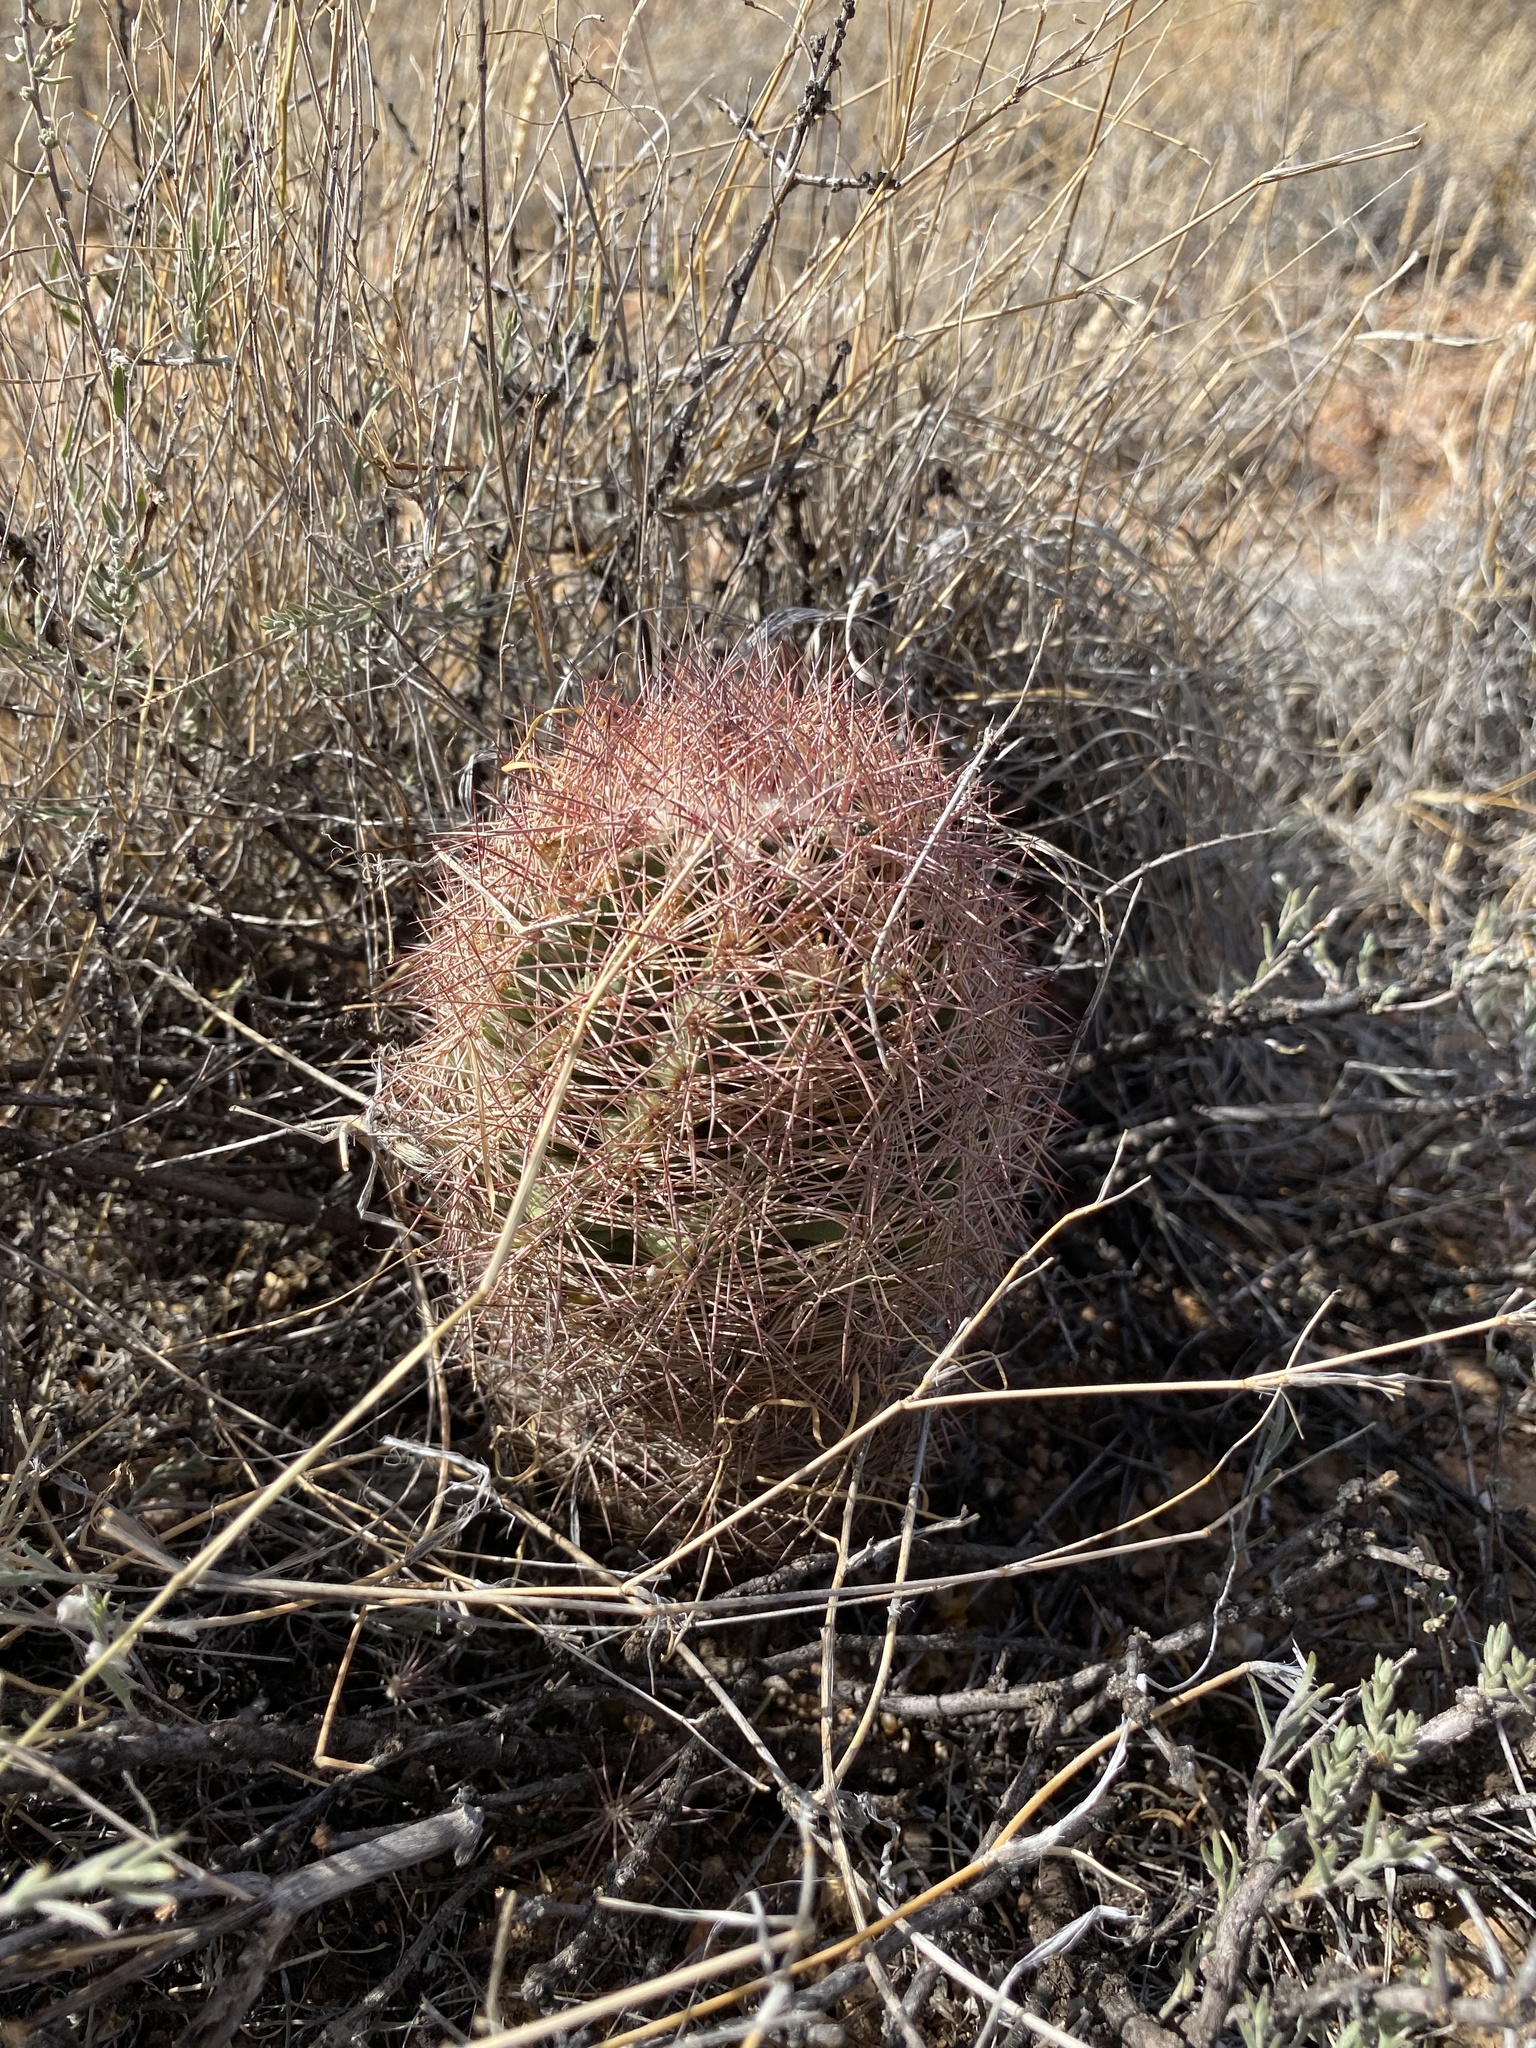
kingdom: Plantae
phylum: Tracheophyta
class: Magnoliopsida
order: Caryophyllales
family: Cactaceae
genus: Sclerocactus
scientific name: Sclerocactus intertextus
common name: White fish-hook cactus
